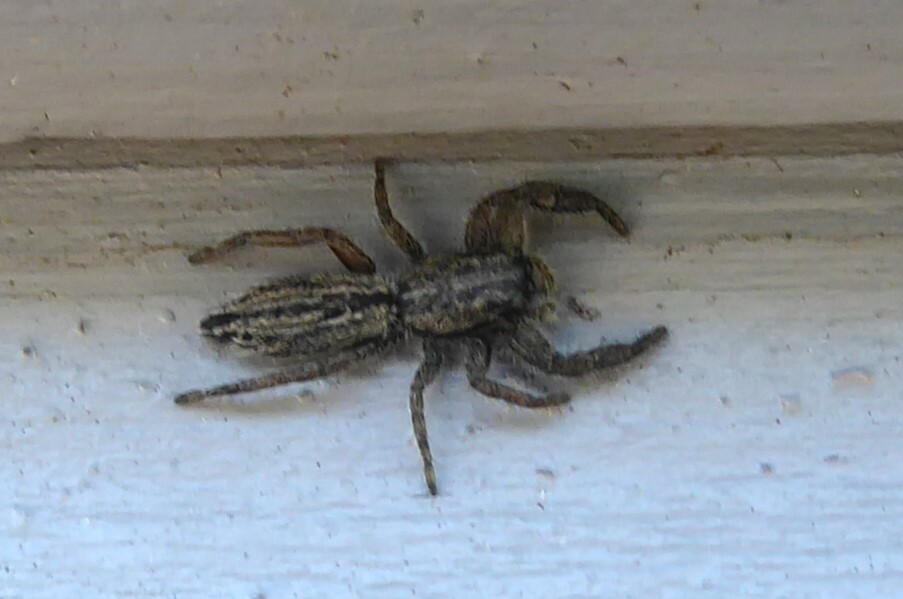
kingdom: Animalia
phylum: Arthropoda
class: Arachnida
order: Araneae
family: Salticidae
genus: Holoplatys
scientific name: Holoplatys apressus
